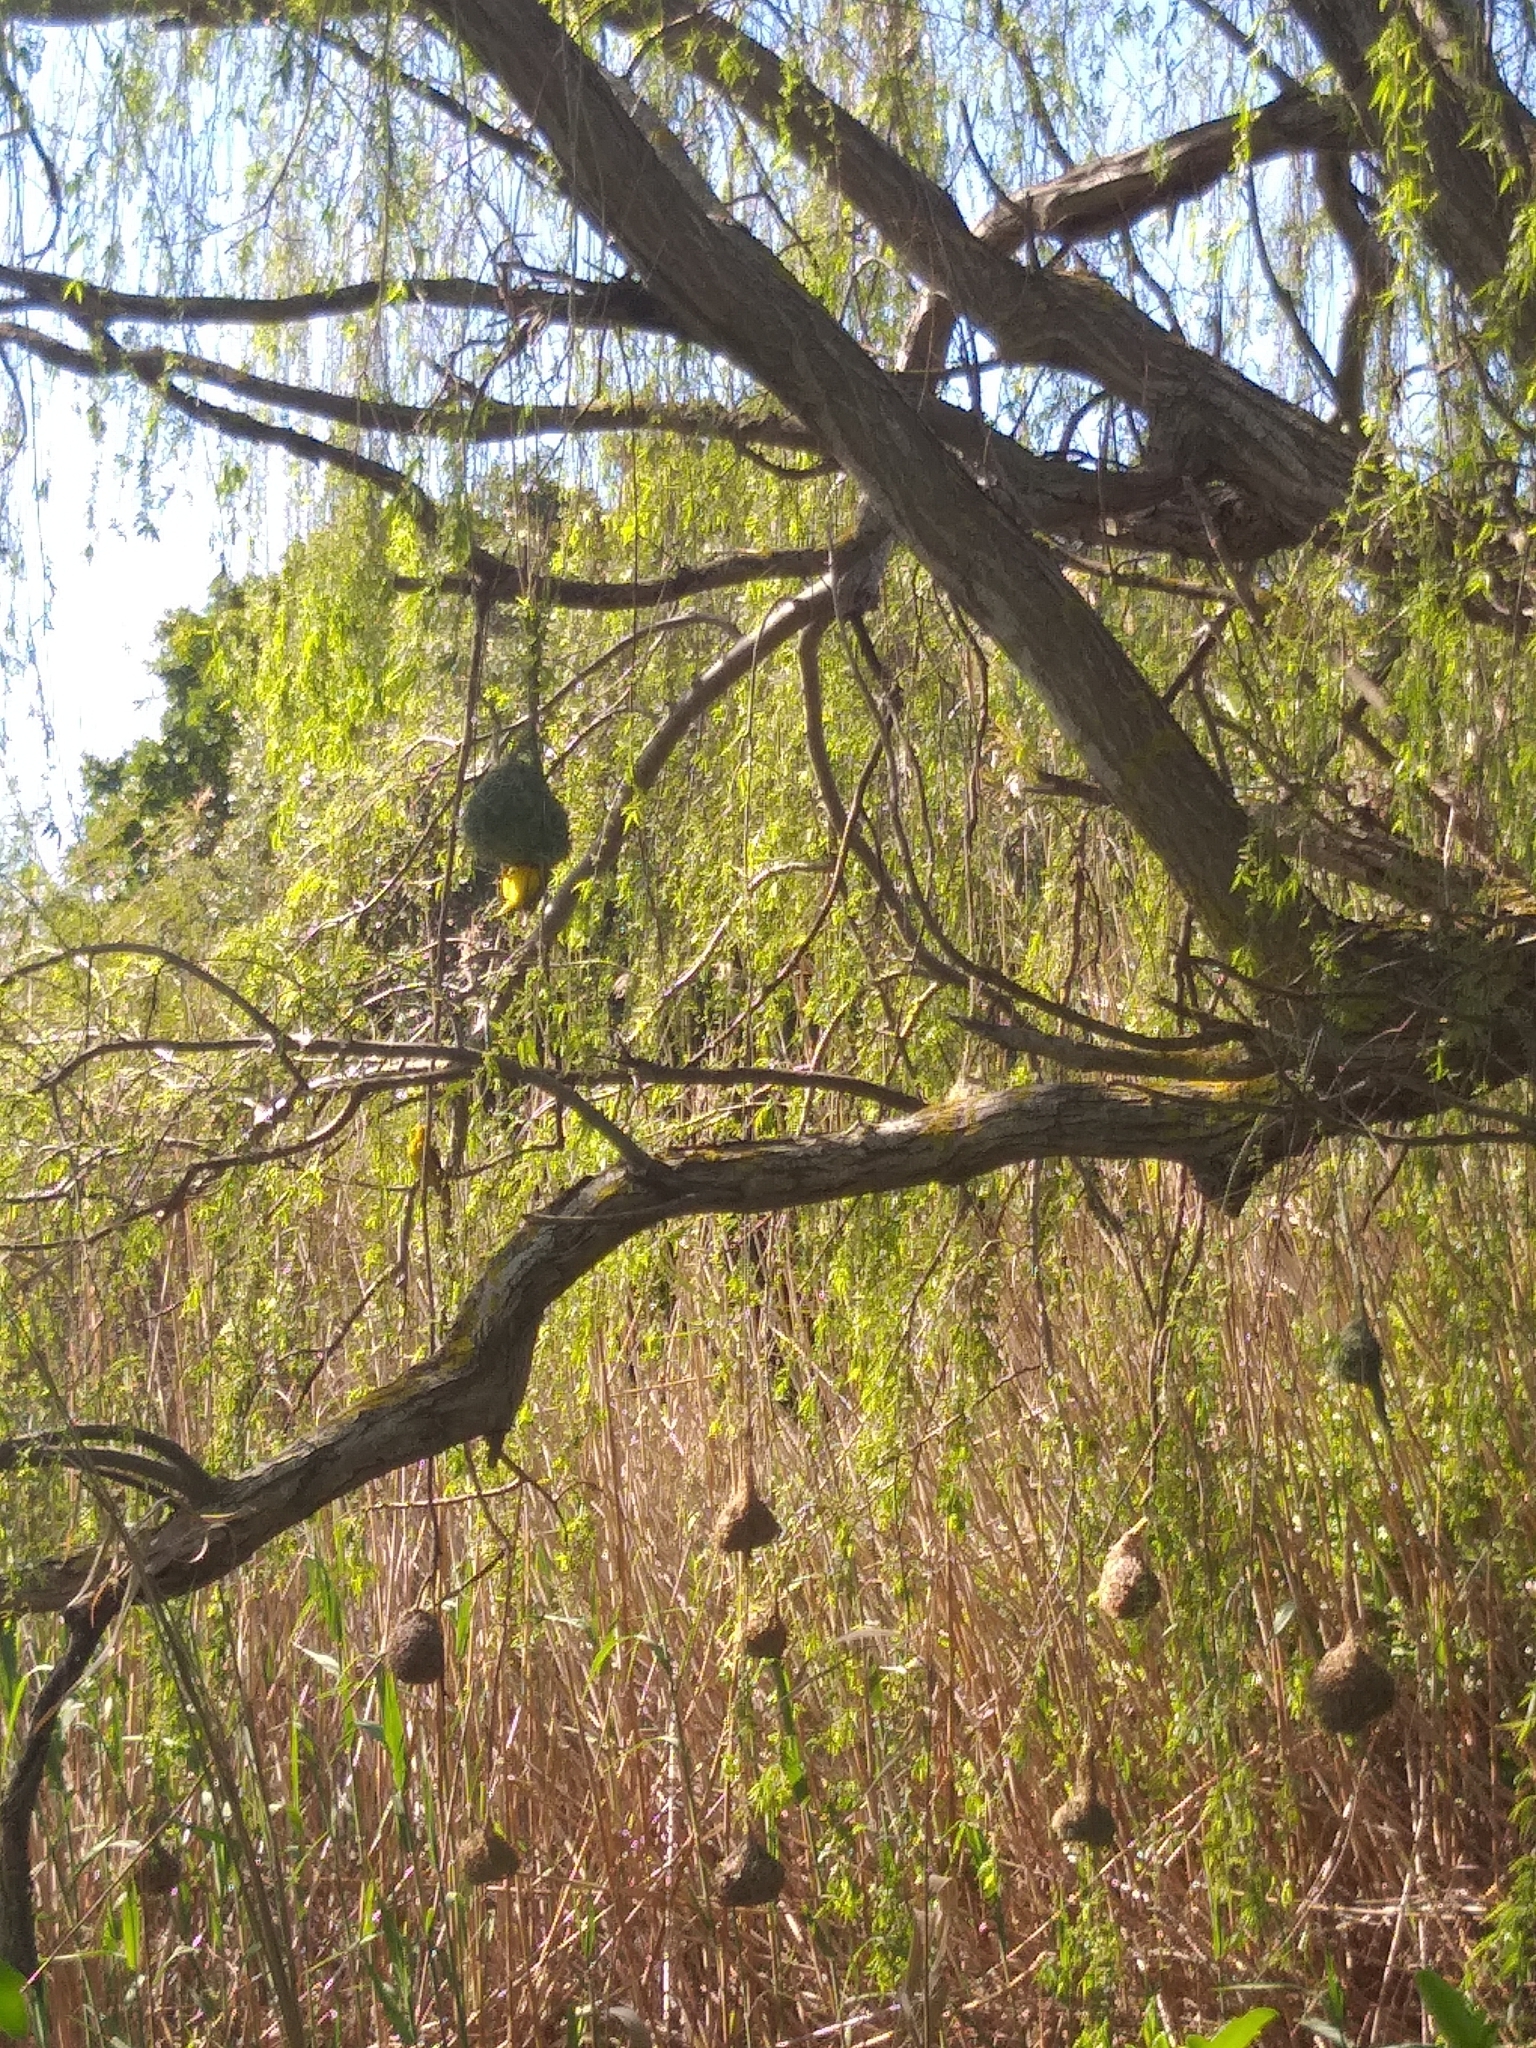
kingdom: Animalia
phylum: Chordata
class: Aves
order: Passeriformes
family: Ploceidae
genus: Ploceus
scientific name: Ploceus capensis
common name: Cape weaver
